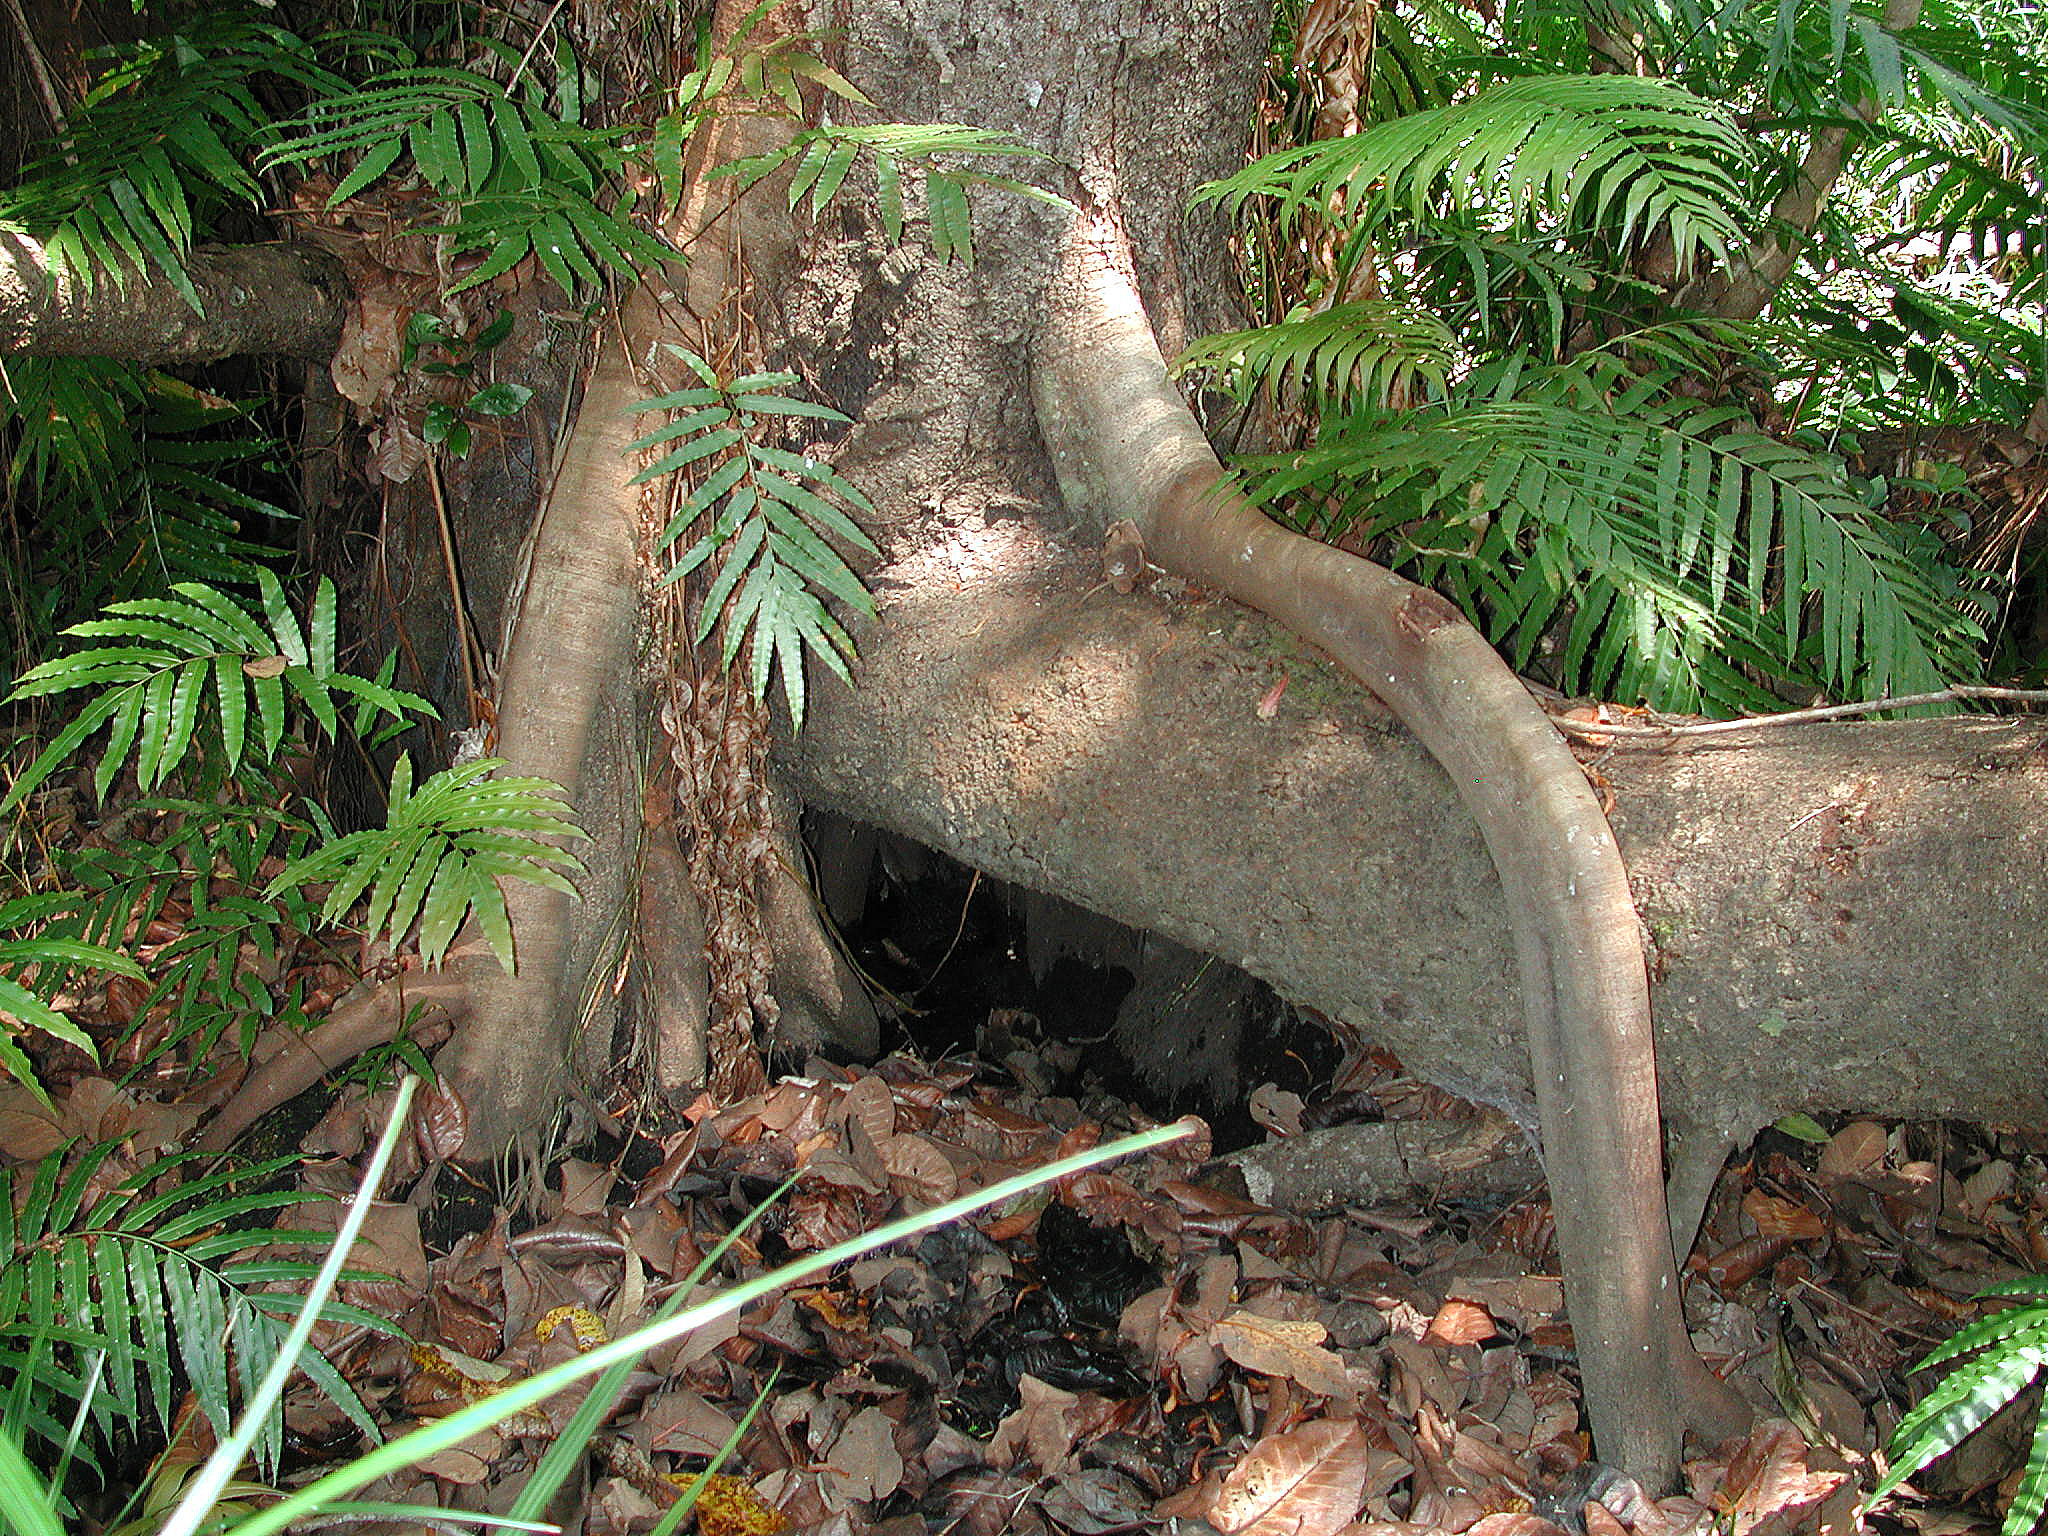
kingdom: Plantae
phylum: Tracheophyta
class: Polypodiopsida
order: Polypodiales
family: Blechnaceae
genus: Stenochlaena
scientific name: Stenochlaena tenuifolia
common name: Giant vine fern
